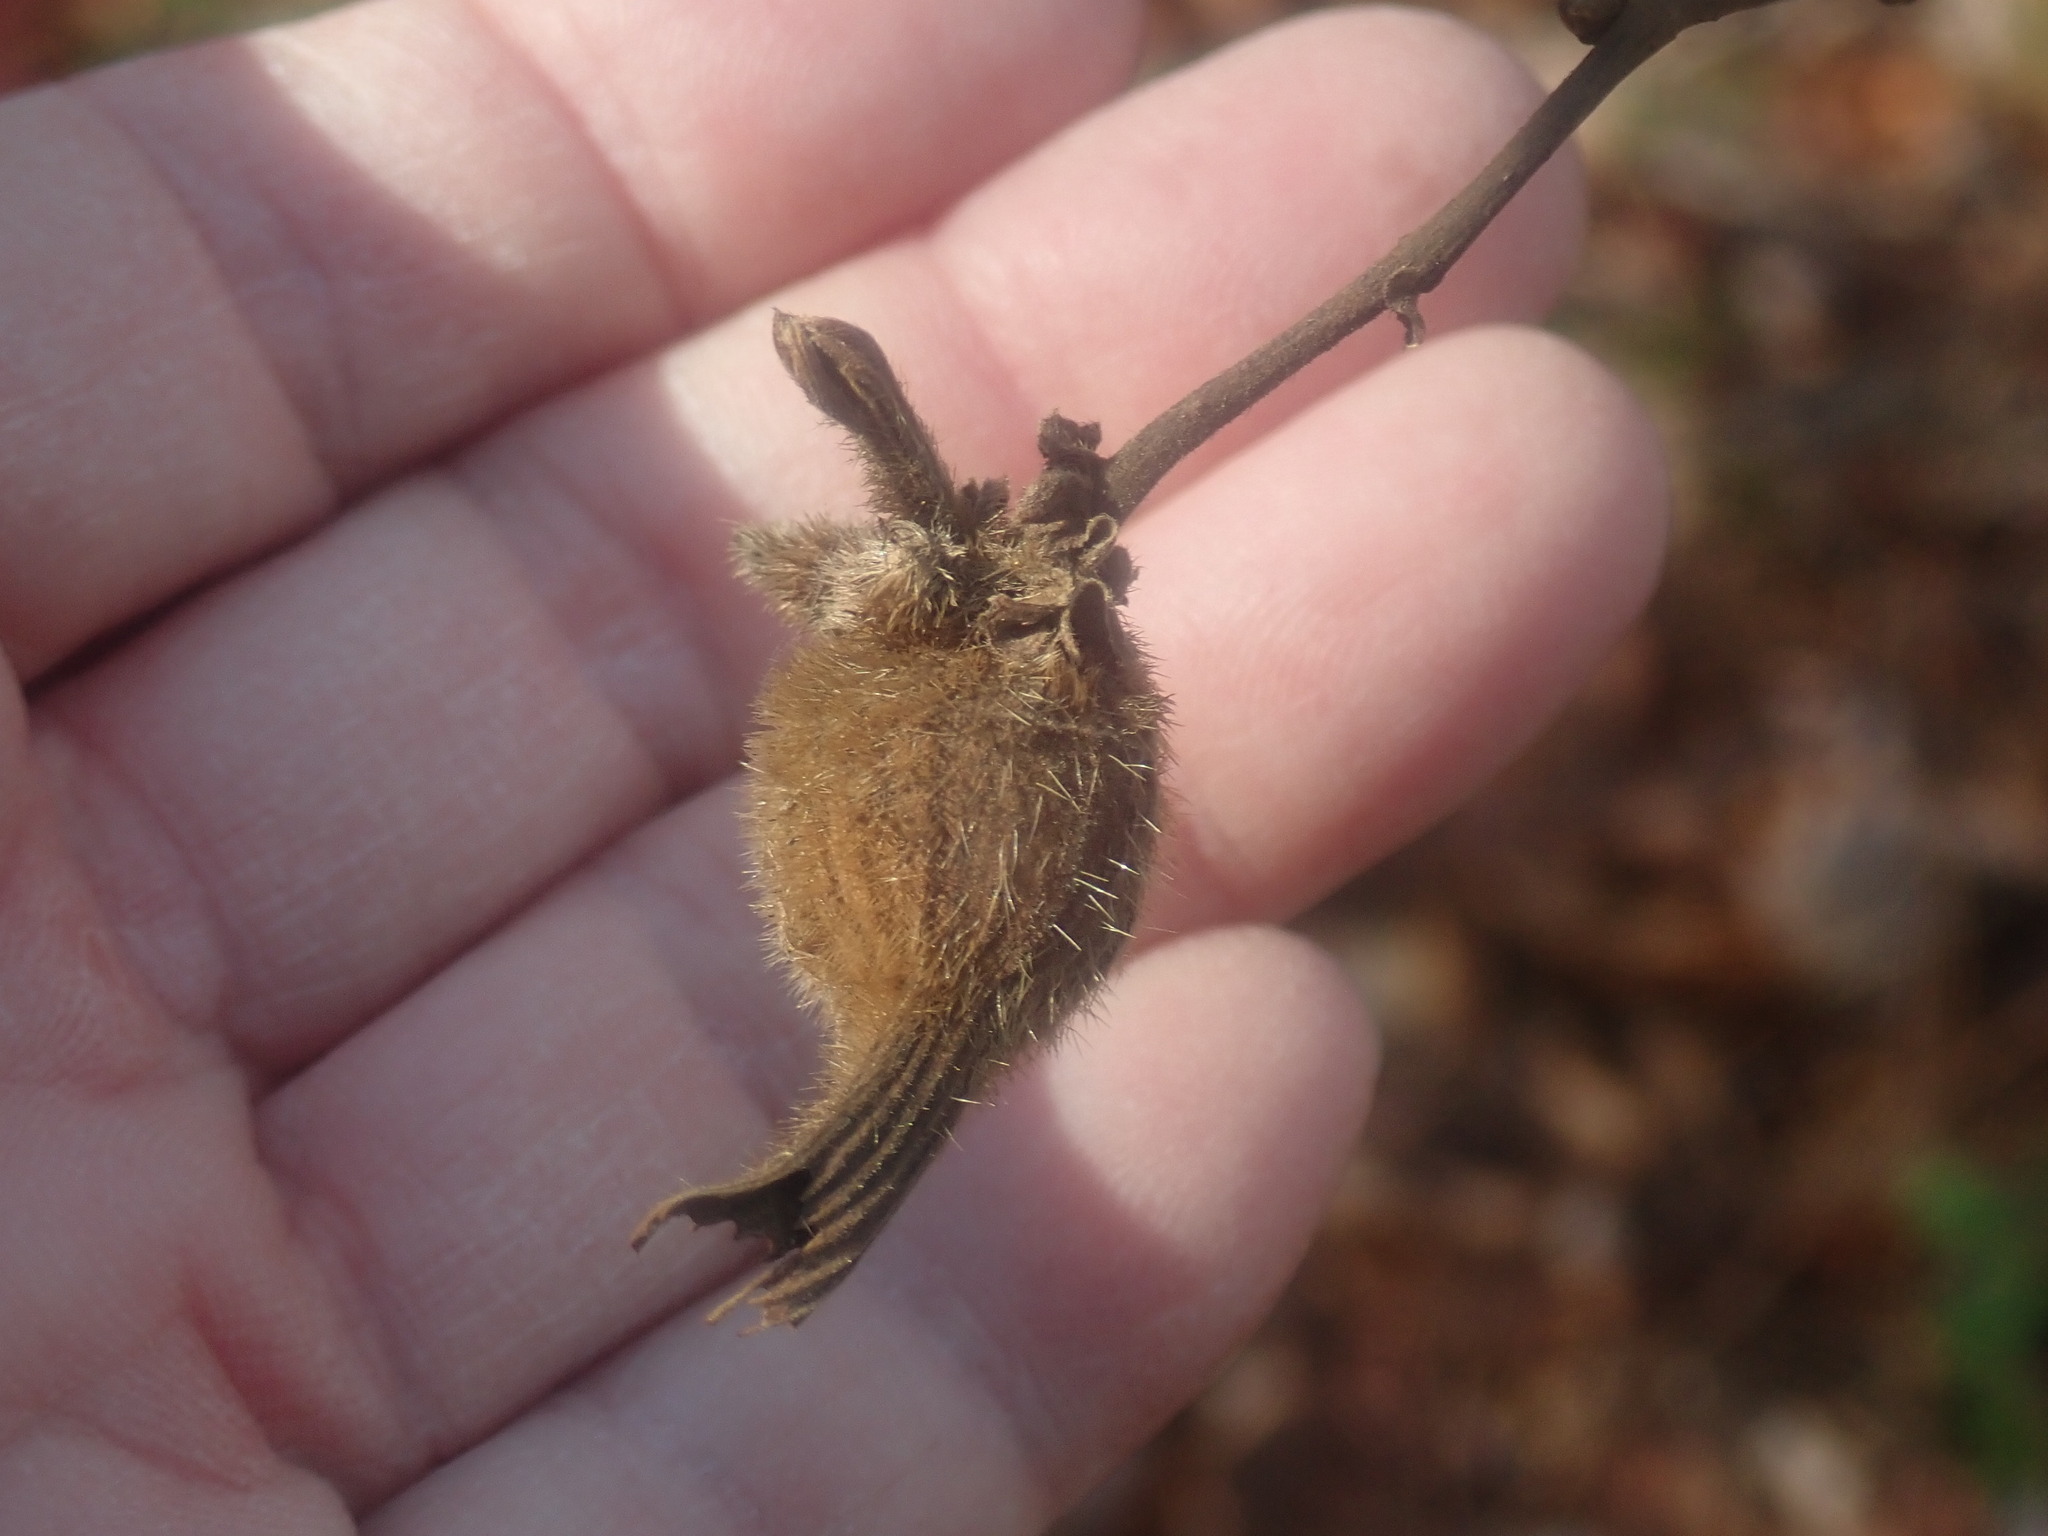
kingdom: Plantae
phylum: Tracheophyta
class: Magnoliopsida
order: Fagales
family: Betulaceae
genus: Corylus
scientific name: Corylus cornuta
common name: Beaked hazel
